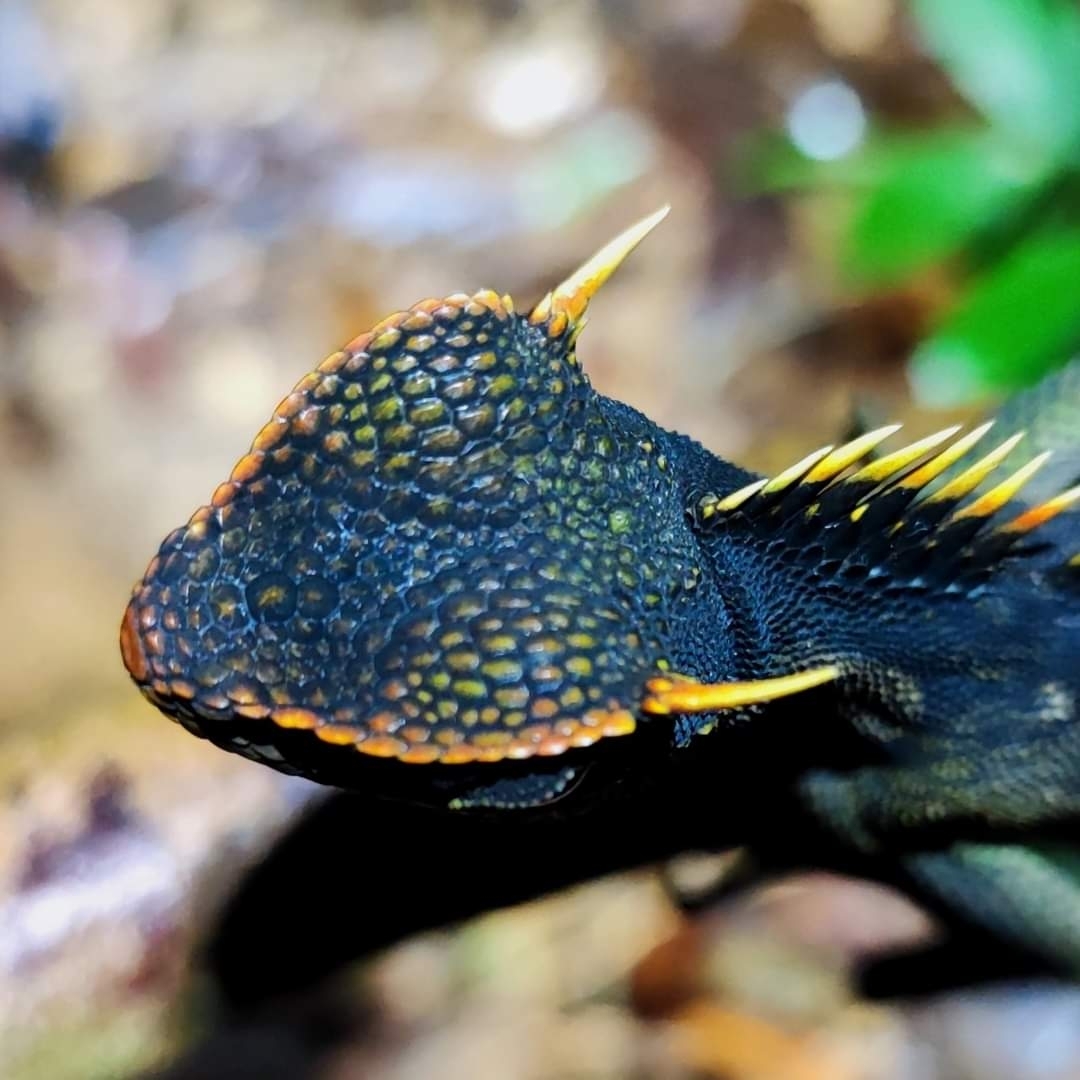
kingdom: Animalia
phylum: Chordata
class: Squamata
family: Agamidae
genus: Acanthosaura
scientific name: Acanthosaura capra
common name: Green pricklenape
